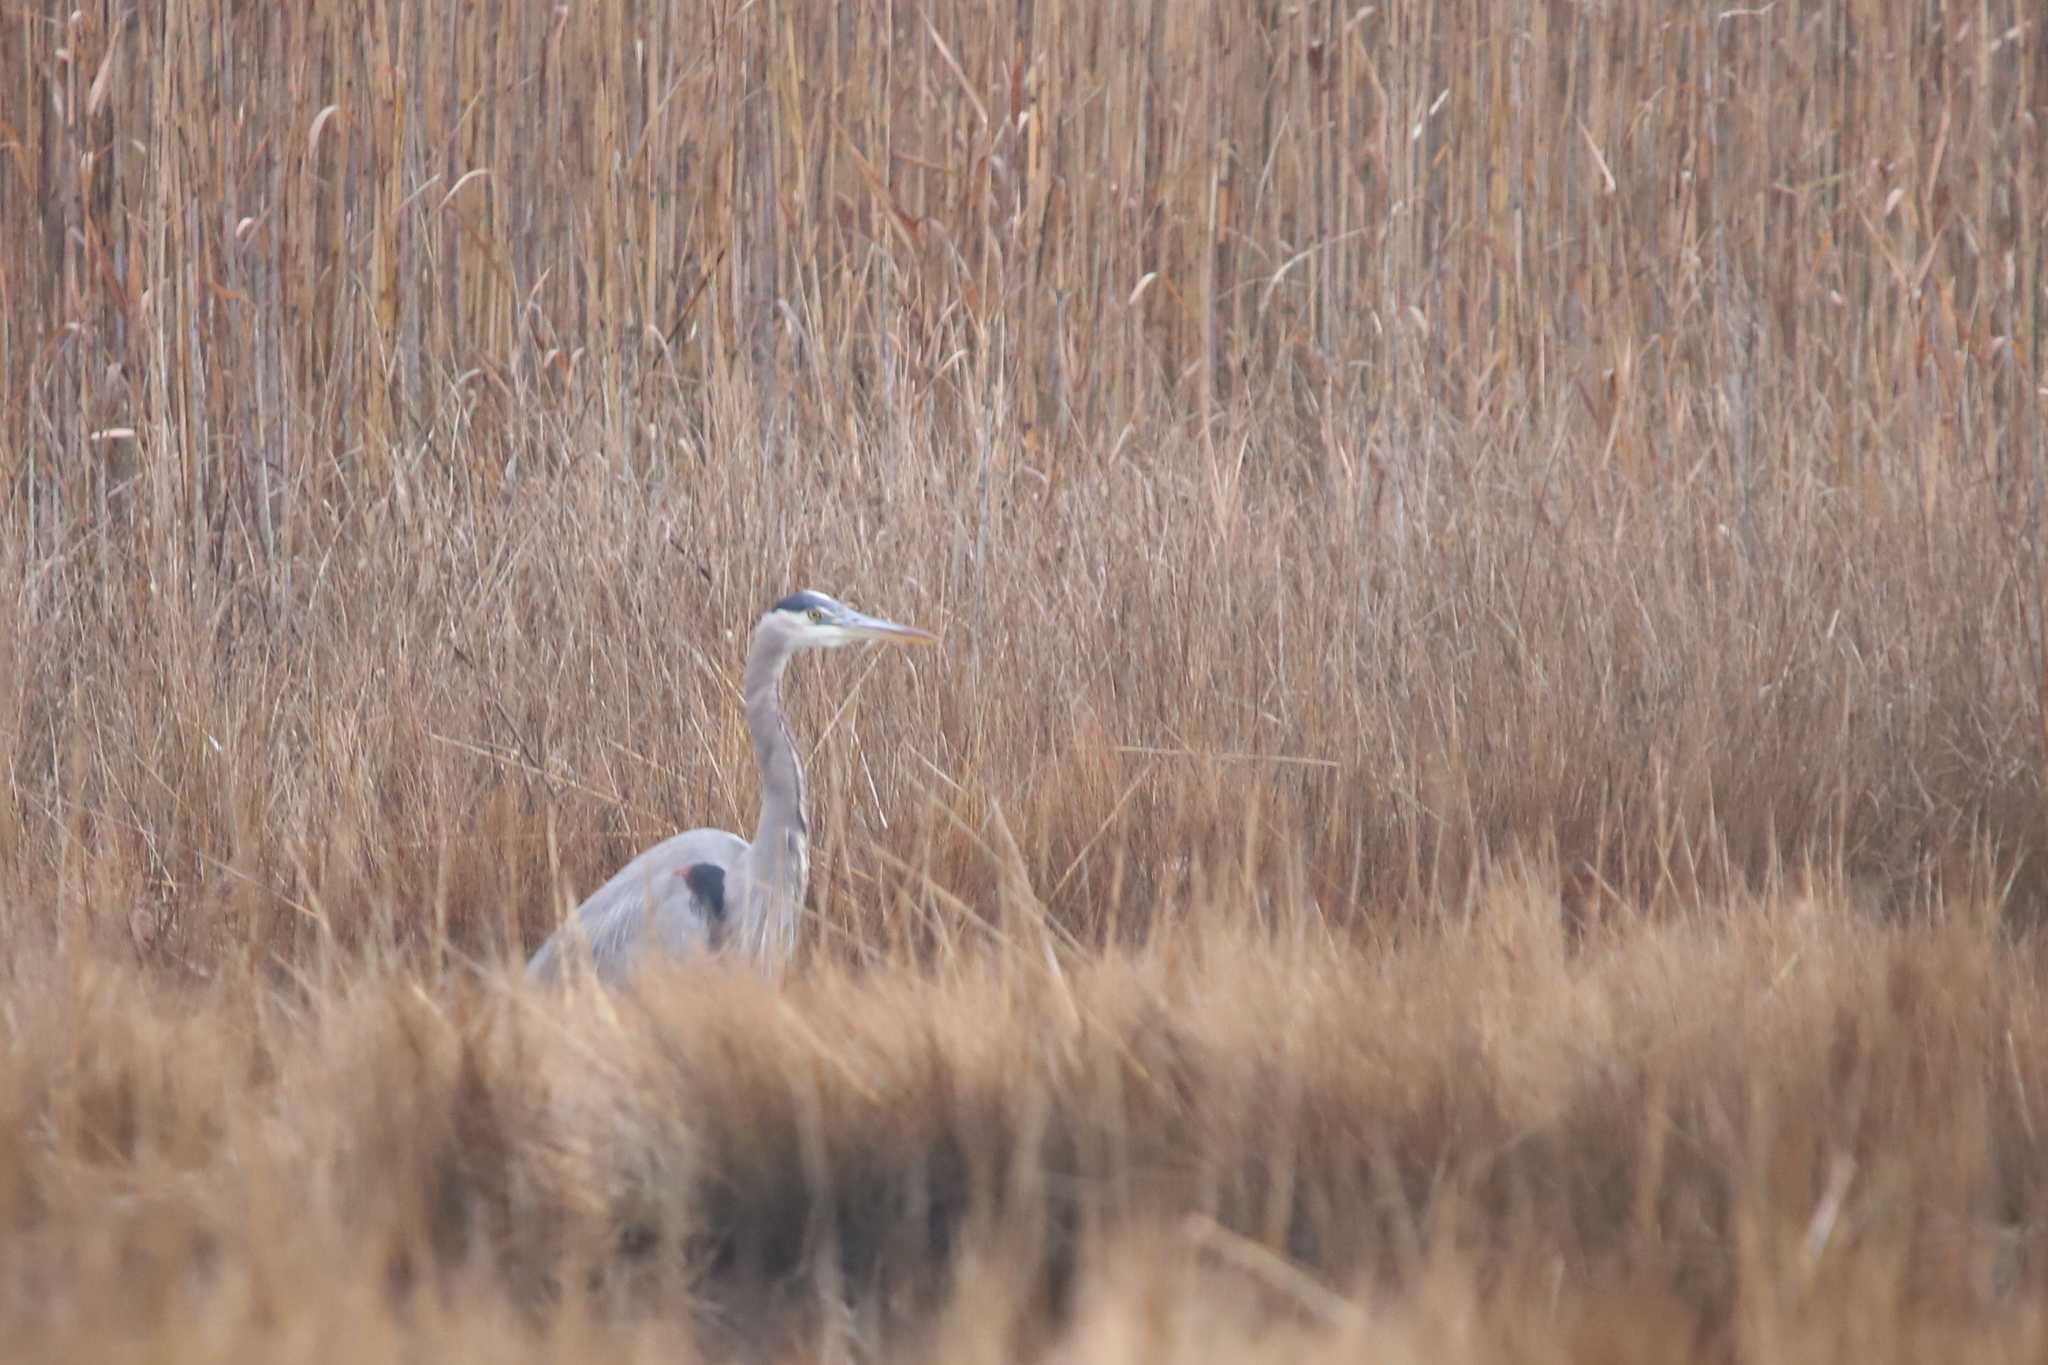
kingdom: Animalia
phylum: Chordata
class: Aves
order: Pelecaniformes
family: Ardeidae
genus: Ardea
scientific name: Ardea herodias
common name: Great blue heron
